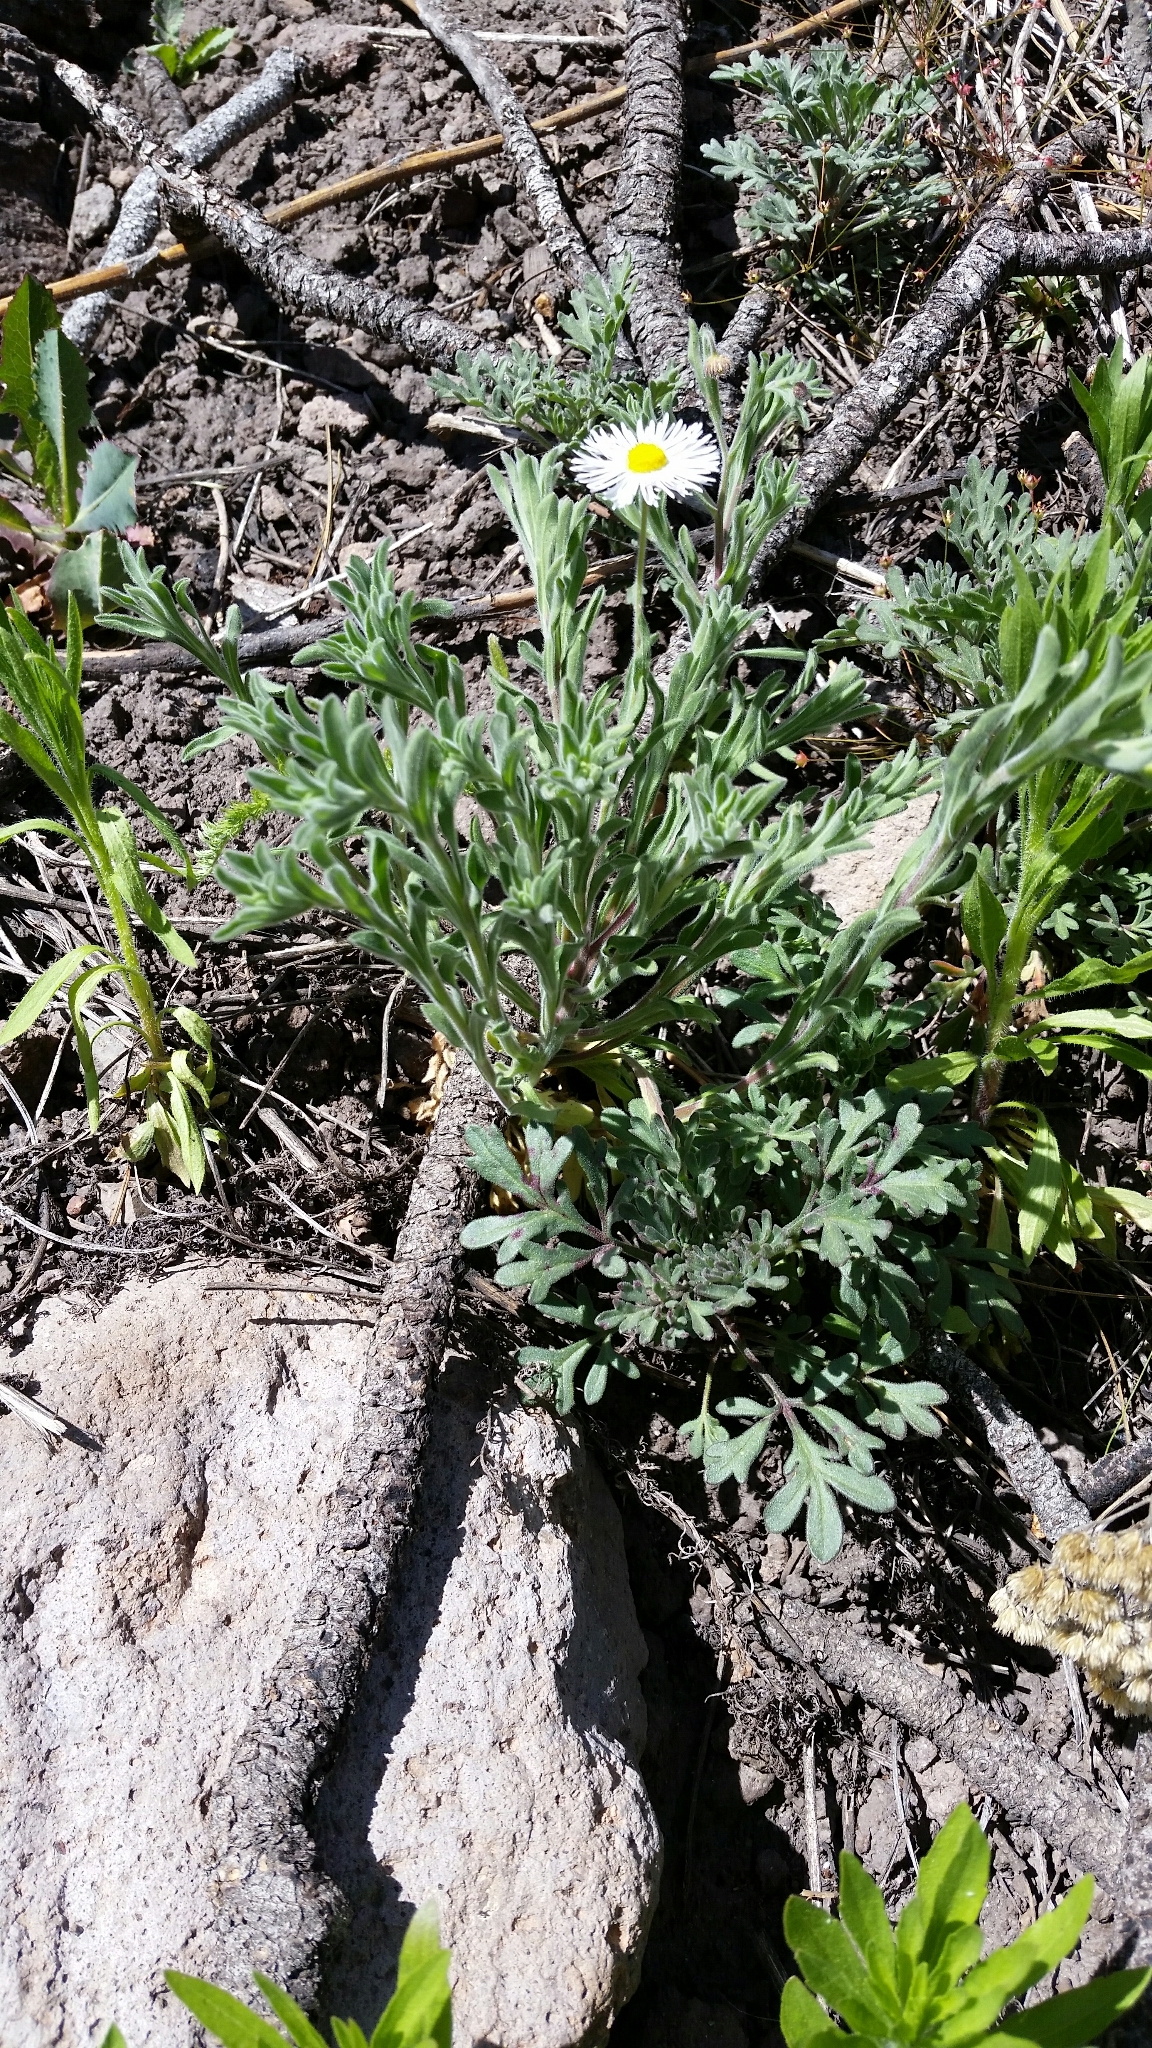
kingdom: Plantae
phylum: Tracheophyta
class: Magnoliopsida
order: Asterales
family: Asteraceae
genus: Erigeron
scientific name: Erigeron divergens
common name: Diffuse fleabane
